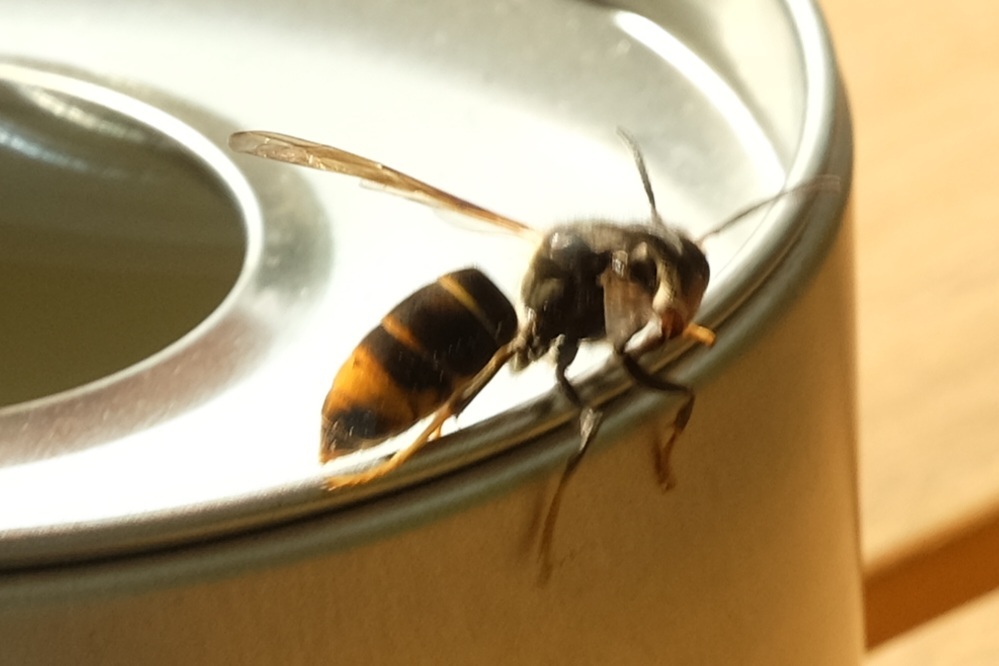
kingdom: Animalia
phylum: Arthropoda
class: Insecta
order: Hymenoptera
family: Vespidae
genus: Vespa
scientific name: Vespa velutina
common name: Asian hornet
